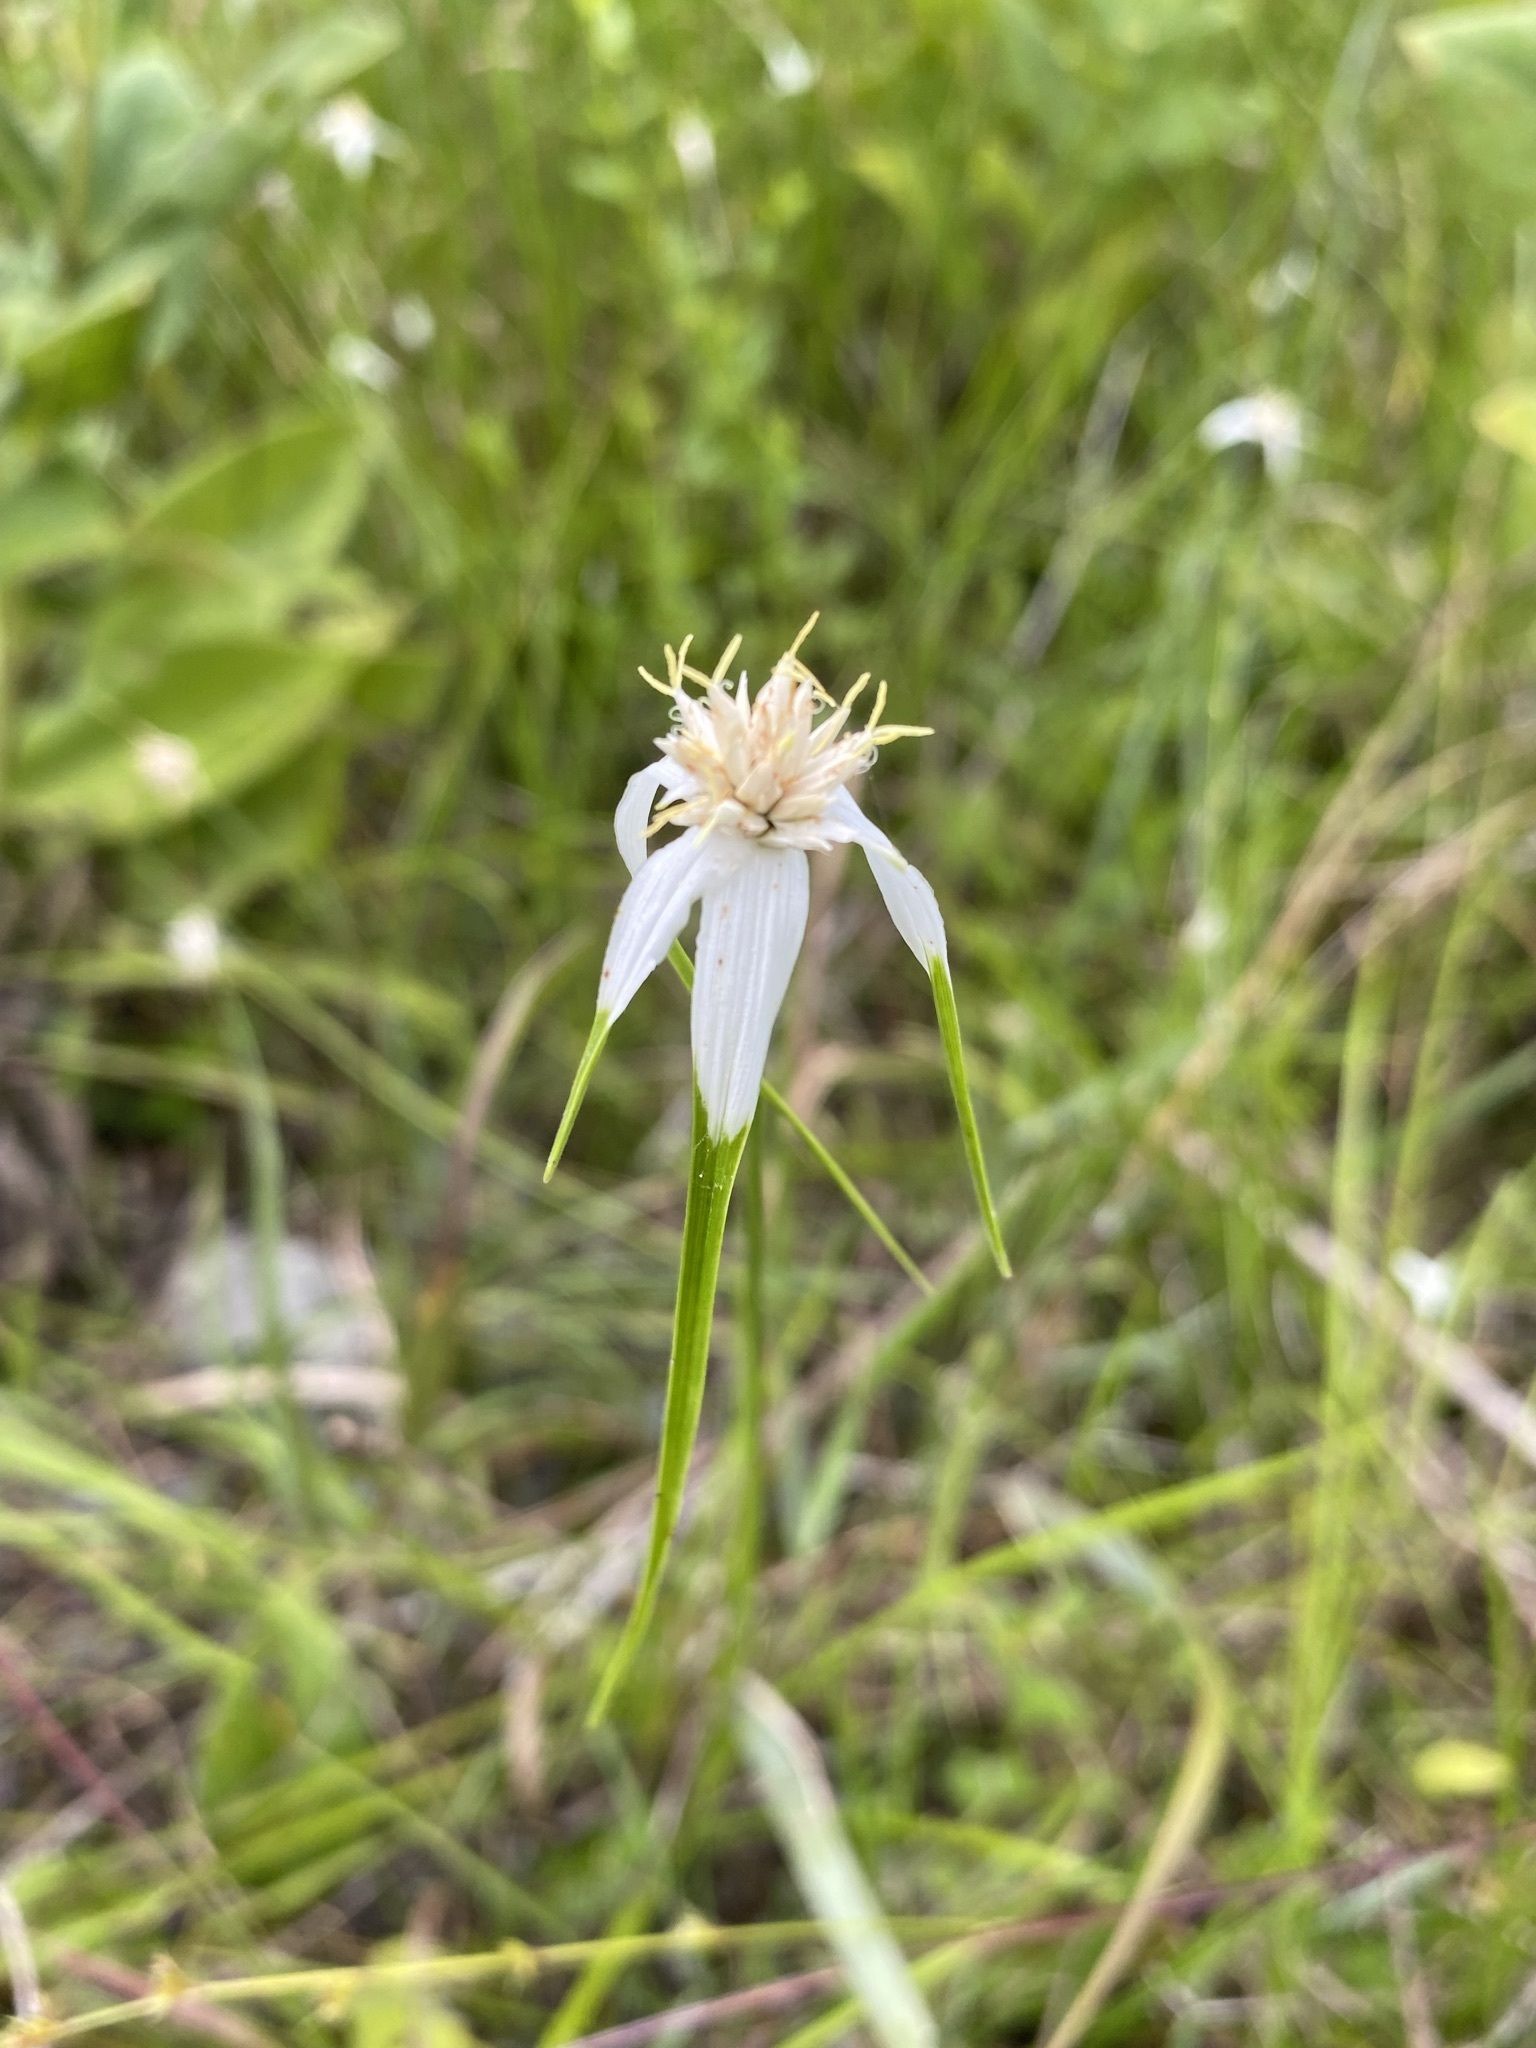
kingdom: Plantae
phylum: Tracheophyta
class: Liliopsida
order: Poales
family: Cyperaceae
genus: Rhynchospora
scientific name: Rhynchospora colorata
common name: Star sedge
